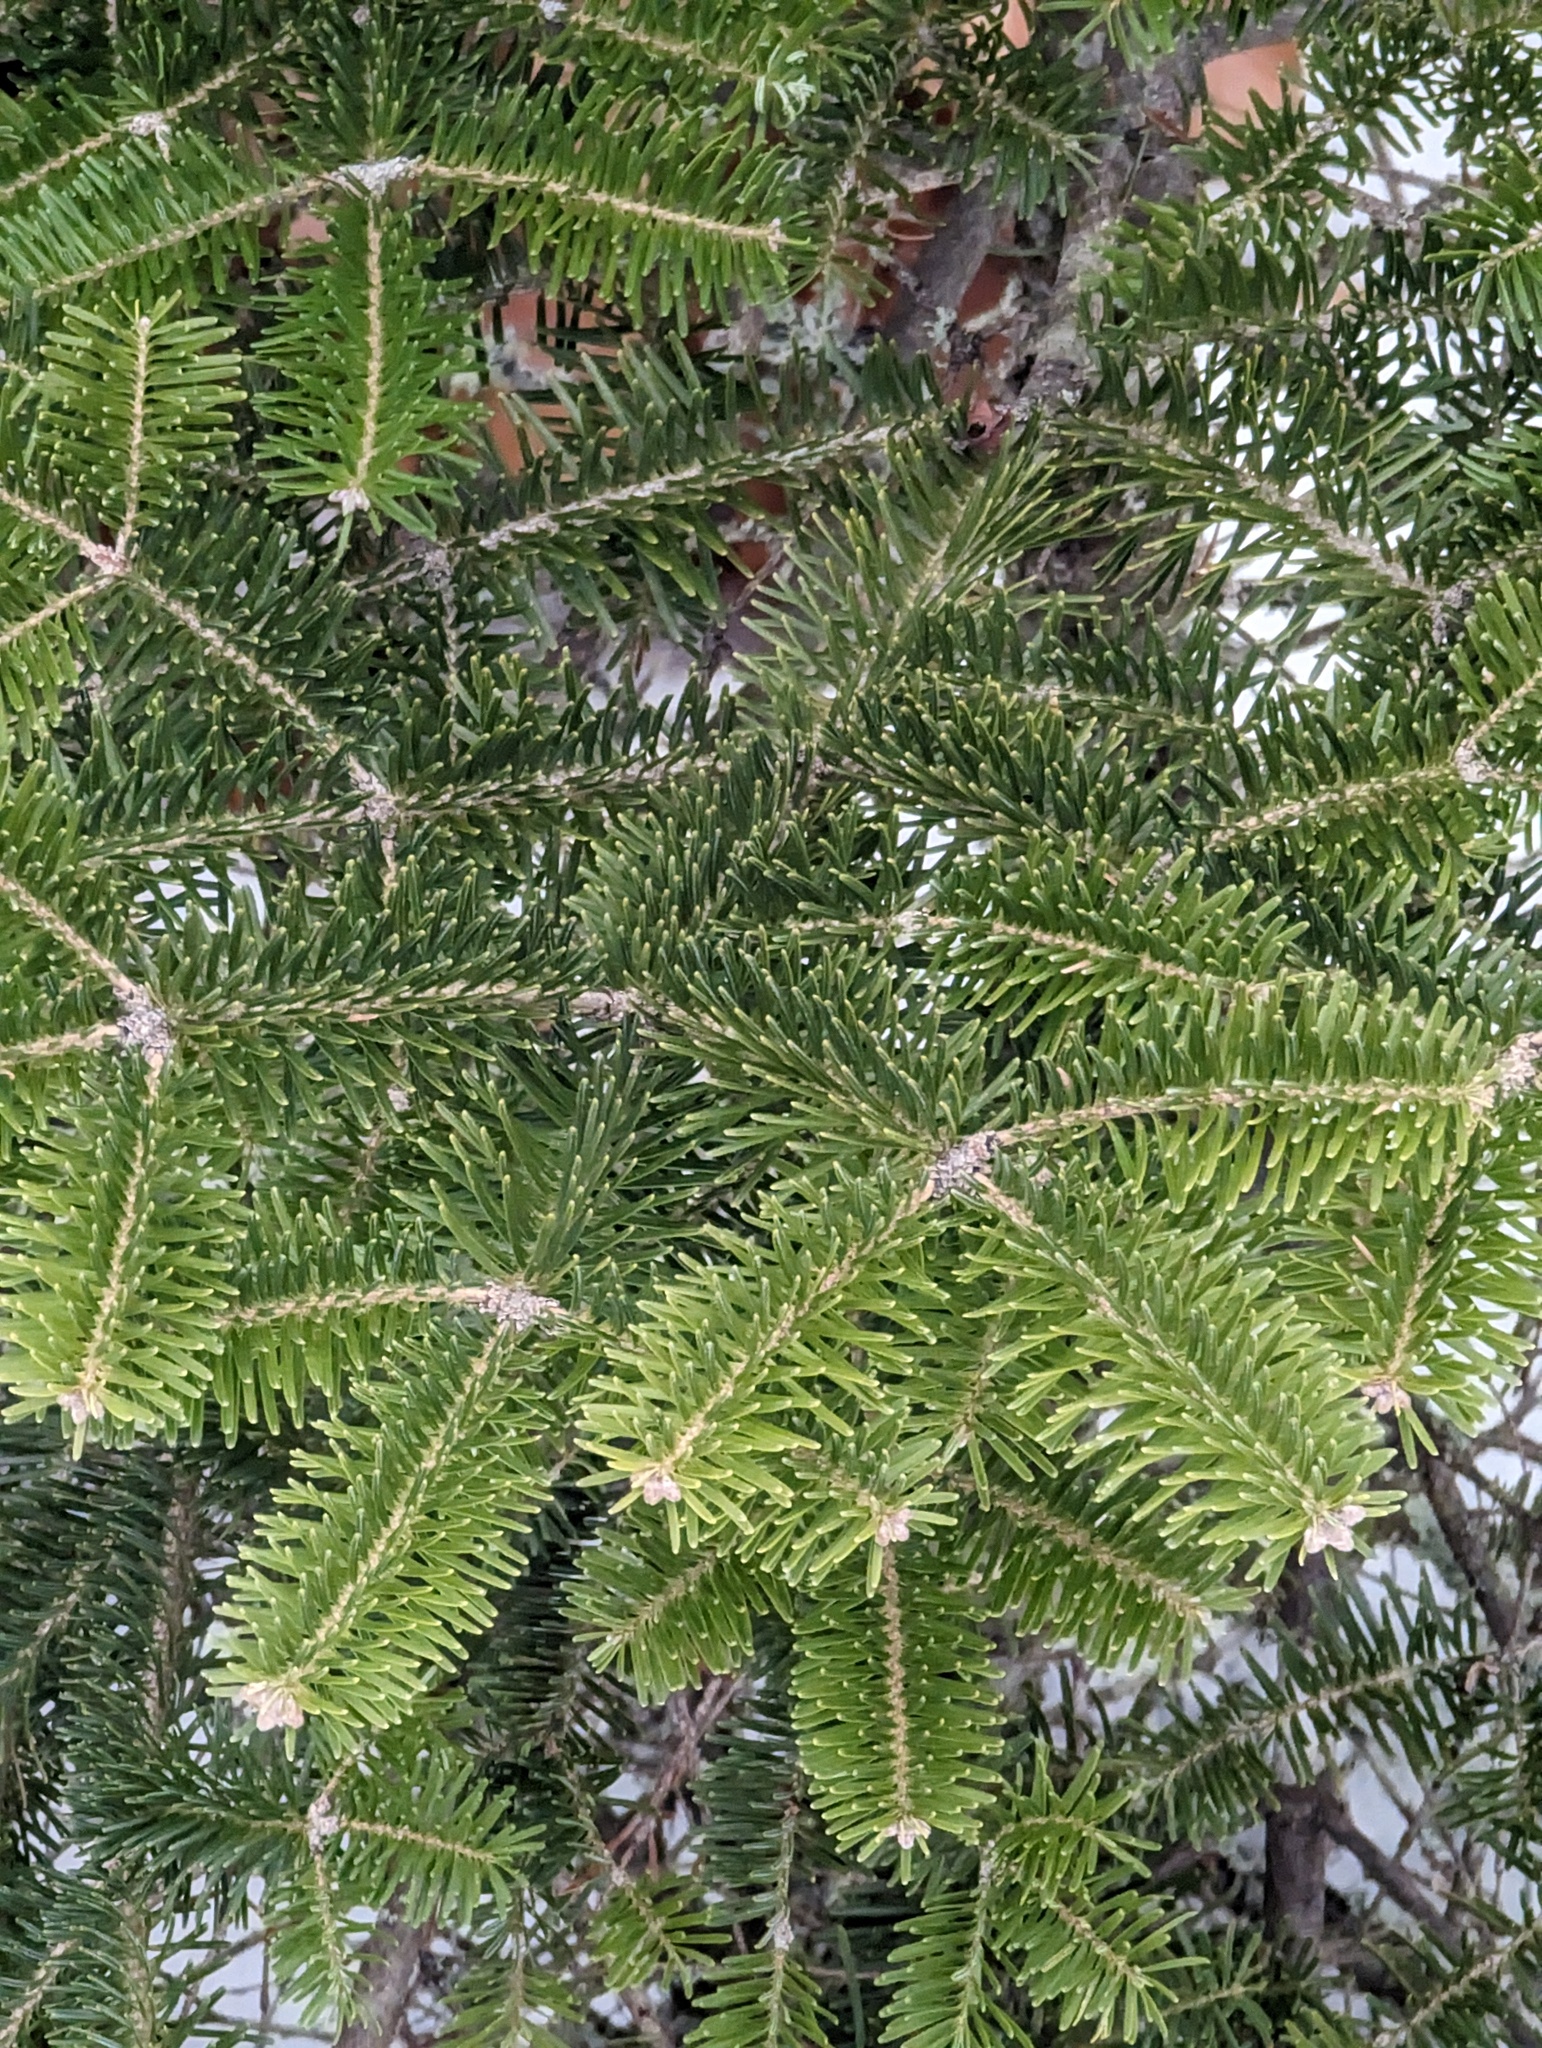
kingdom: Plantae
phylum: Tracheophyta
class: Pinopsida
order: Pinales
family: Pinaceae
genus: Abies
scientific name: Abies balsamea
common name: Balsam fir
